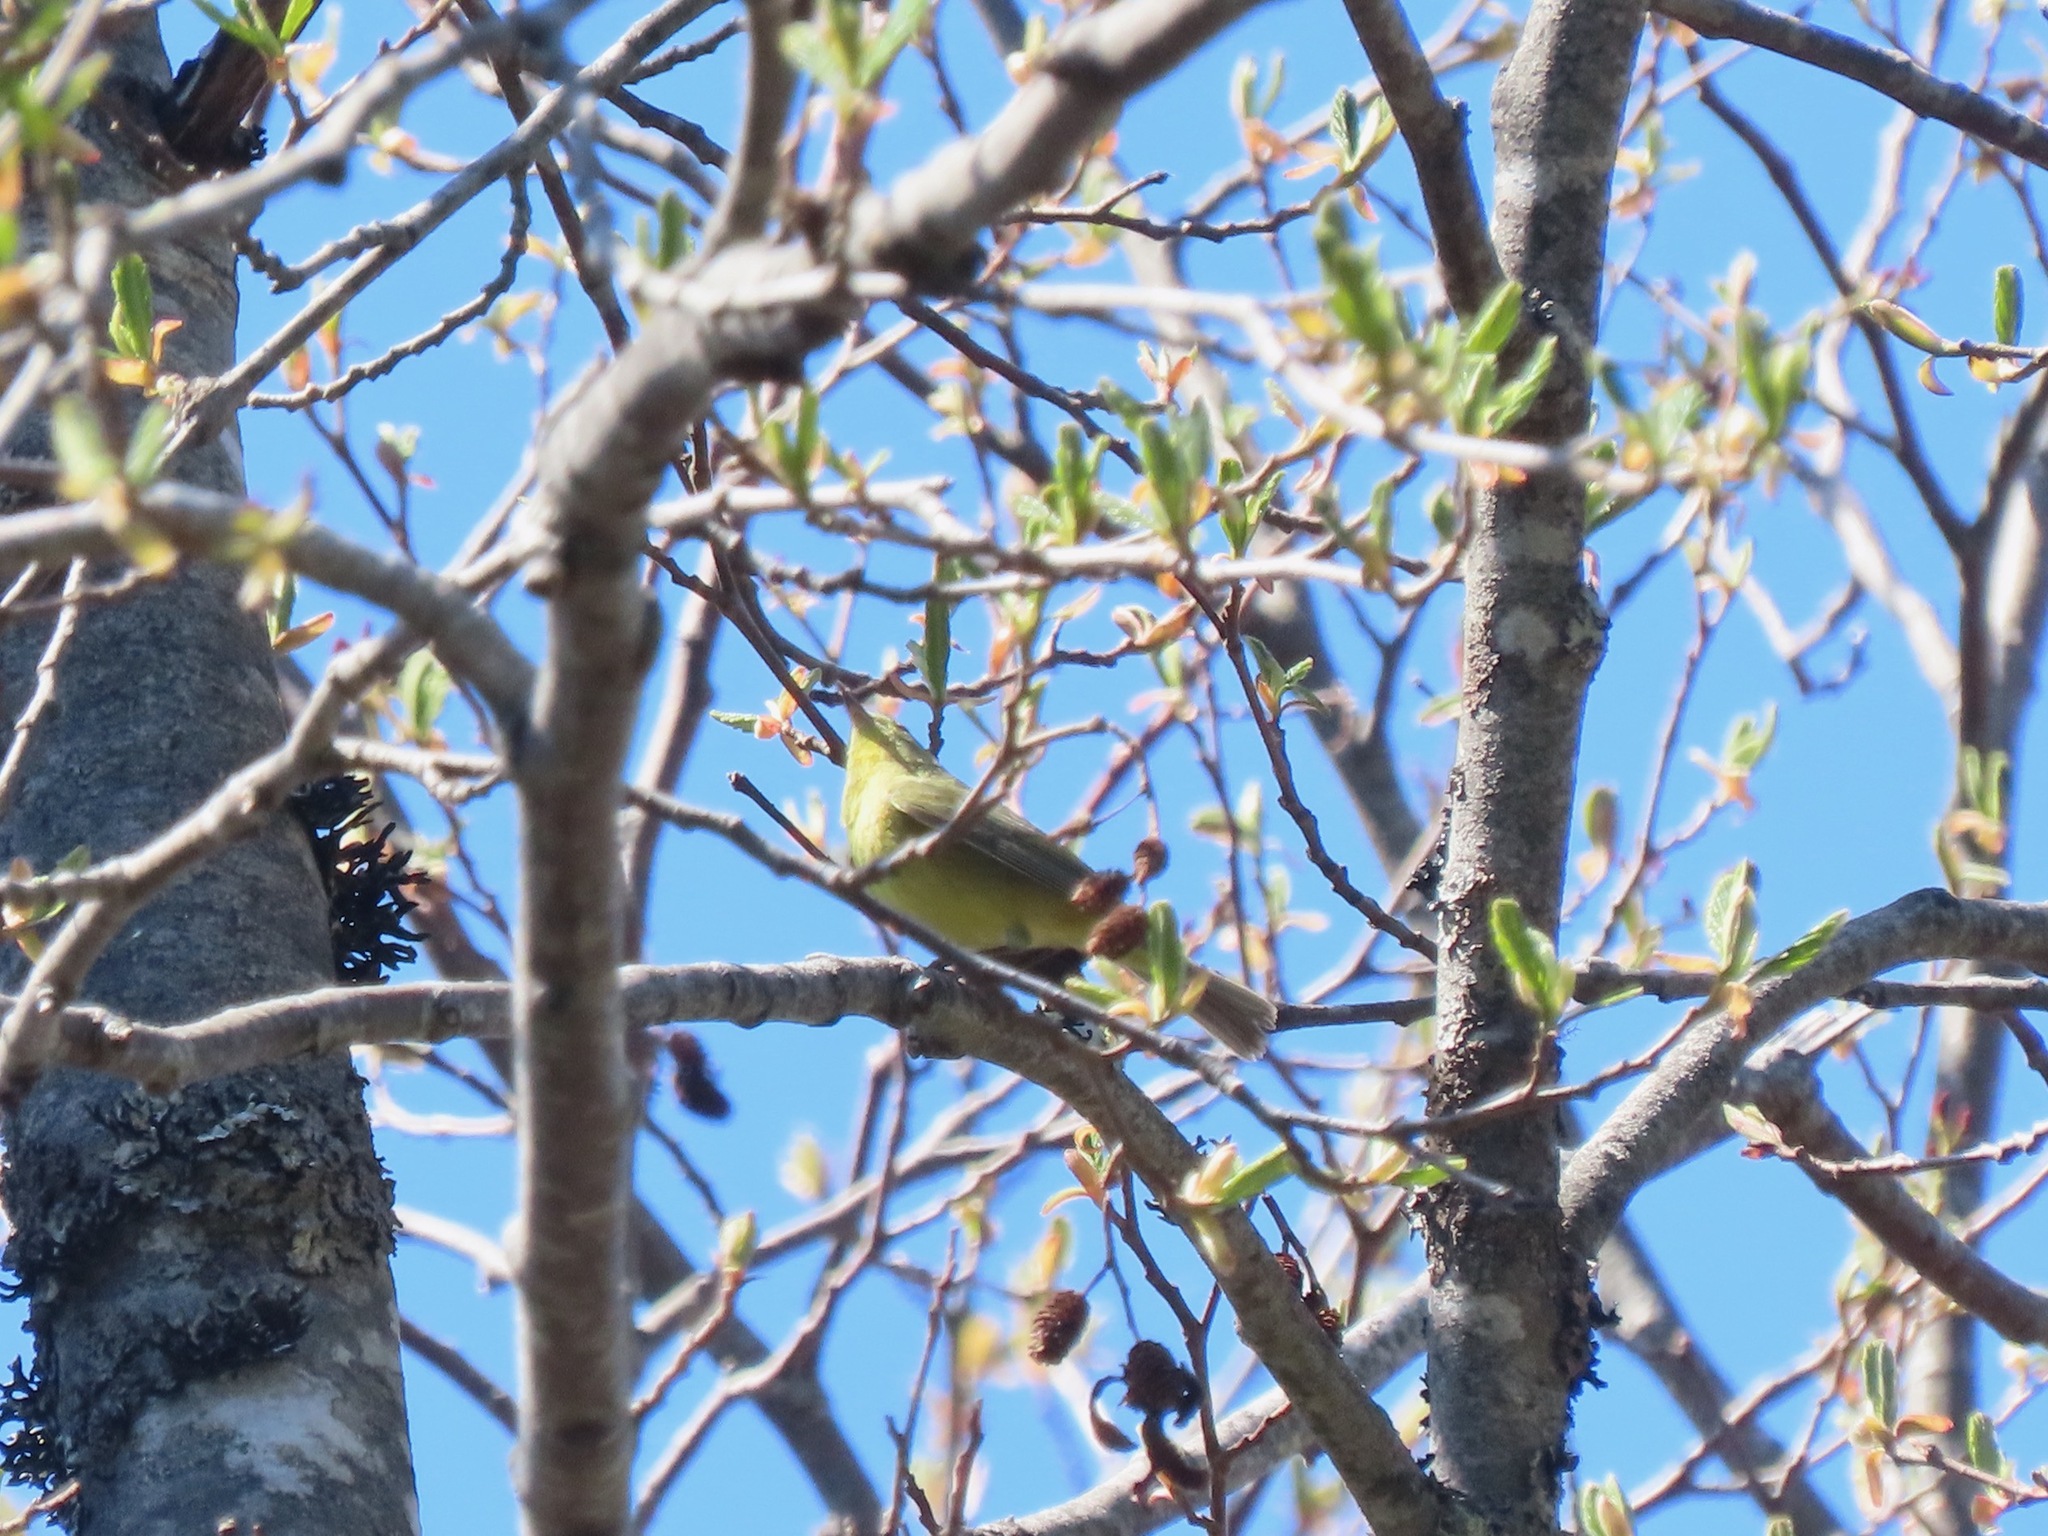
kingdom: Animalia
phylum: Chordata
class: Aves
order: Passeriformes
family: Parulidae
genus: Leiothlypis
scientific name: Leiothlypis celata
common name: Orange-crowned warbler
